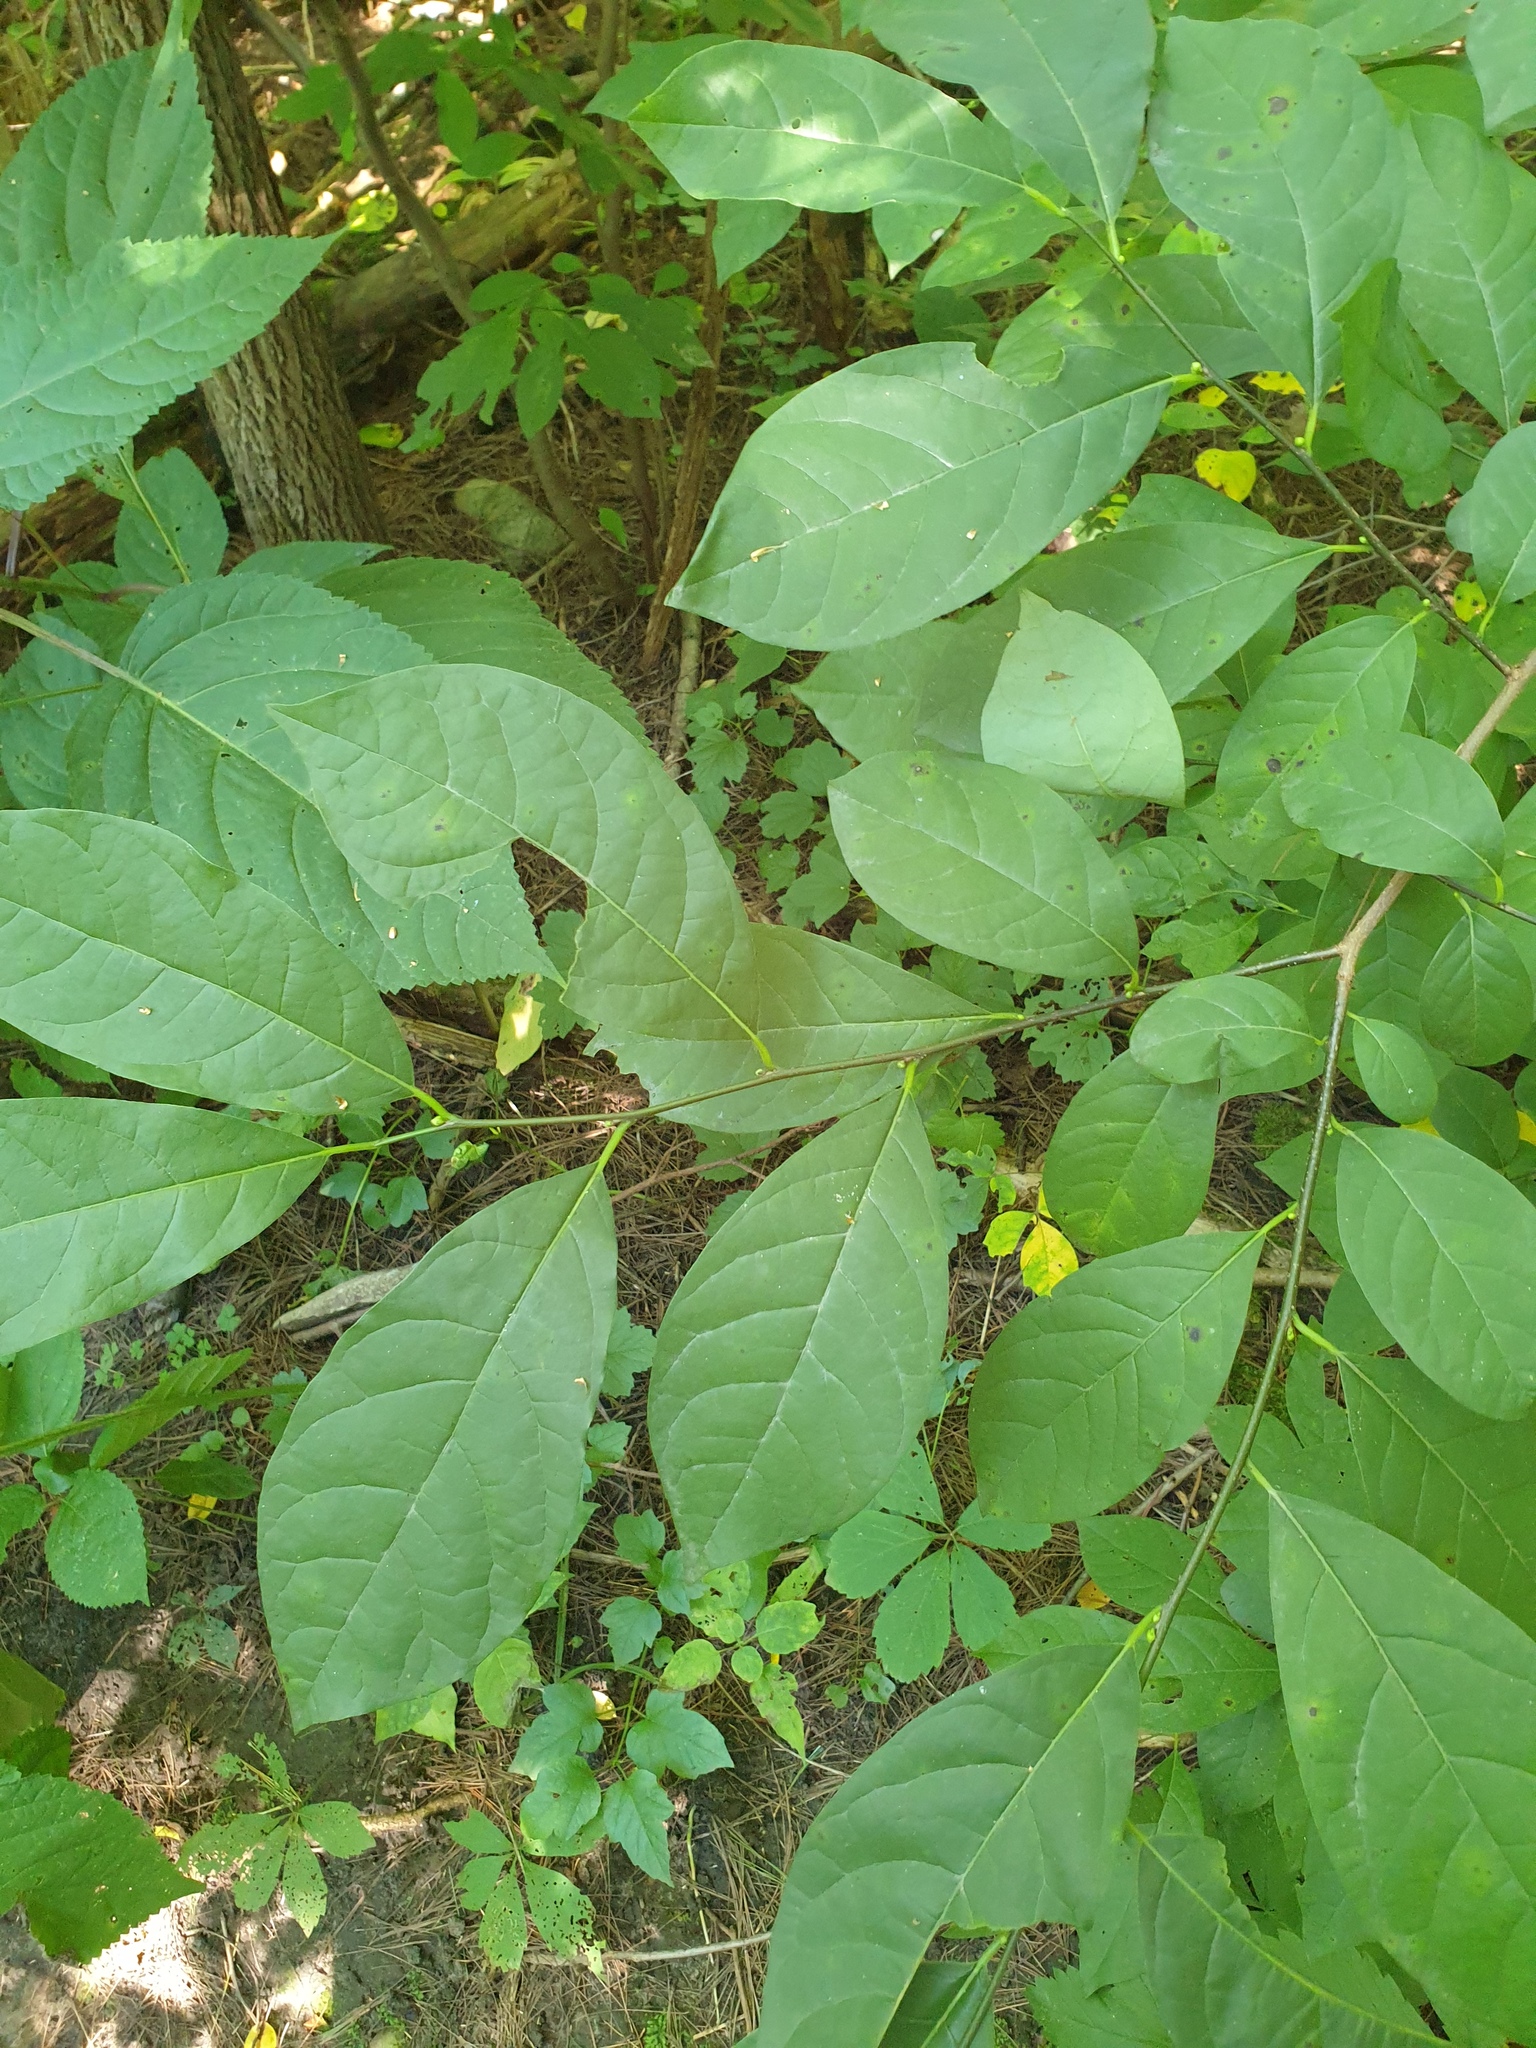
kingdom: Plantae
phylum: Tracheophyta
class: Magnoliopsida
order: Laurales
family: Lauraceae
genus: Lindera
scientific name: Lindera benzoin
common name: Spicebush
